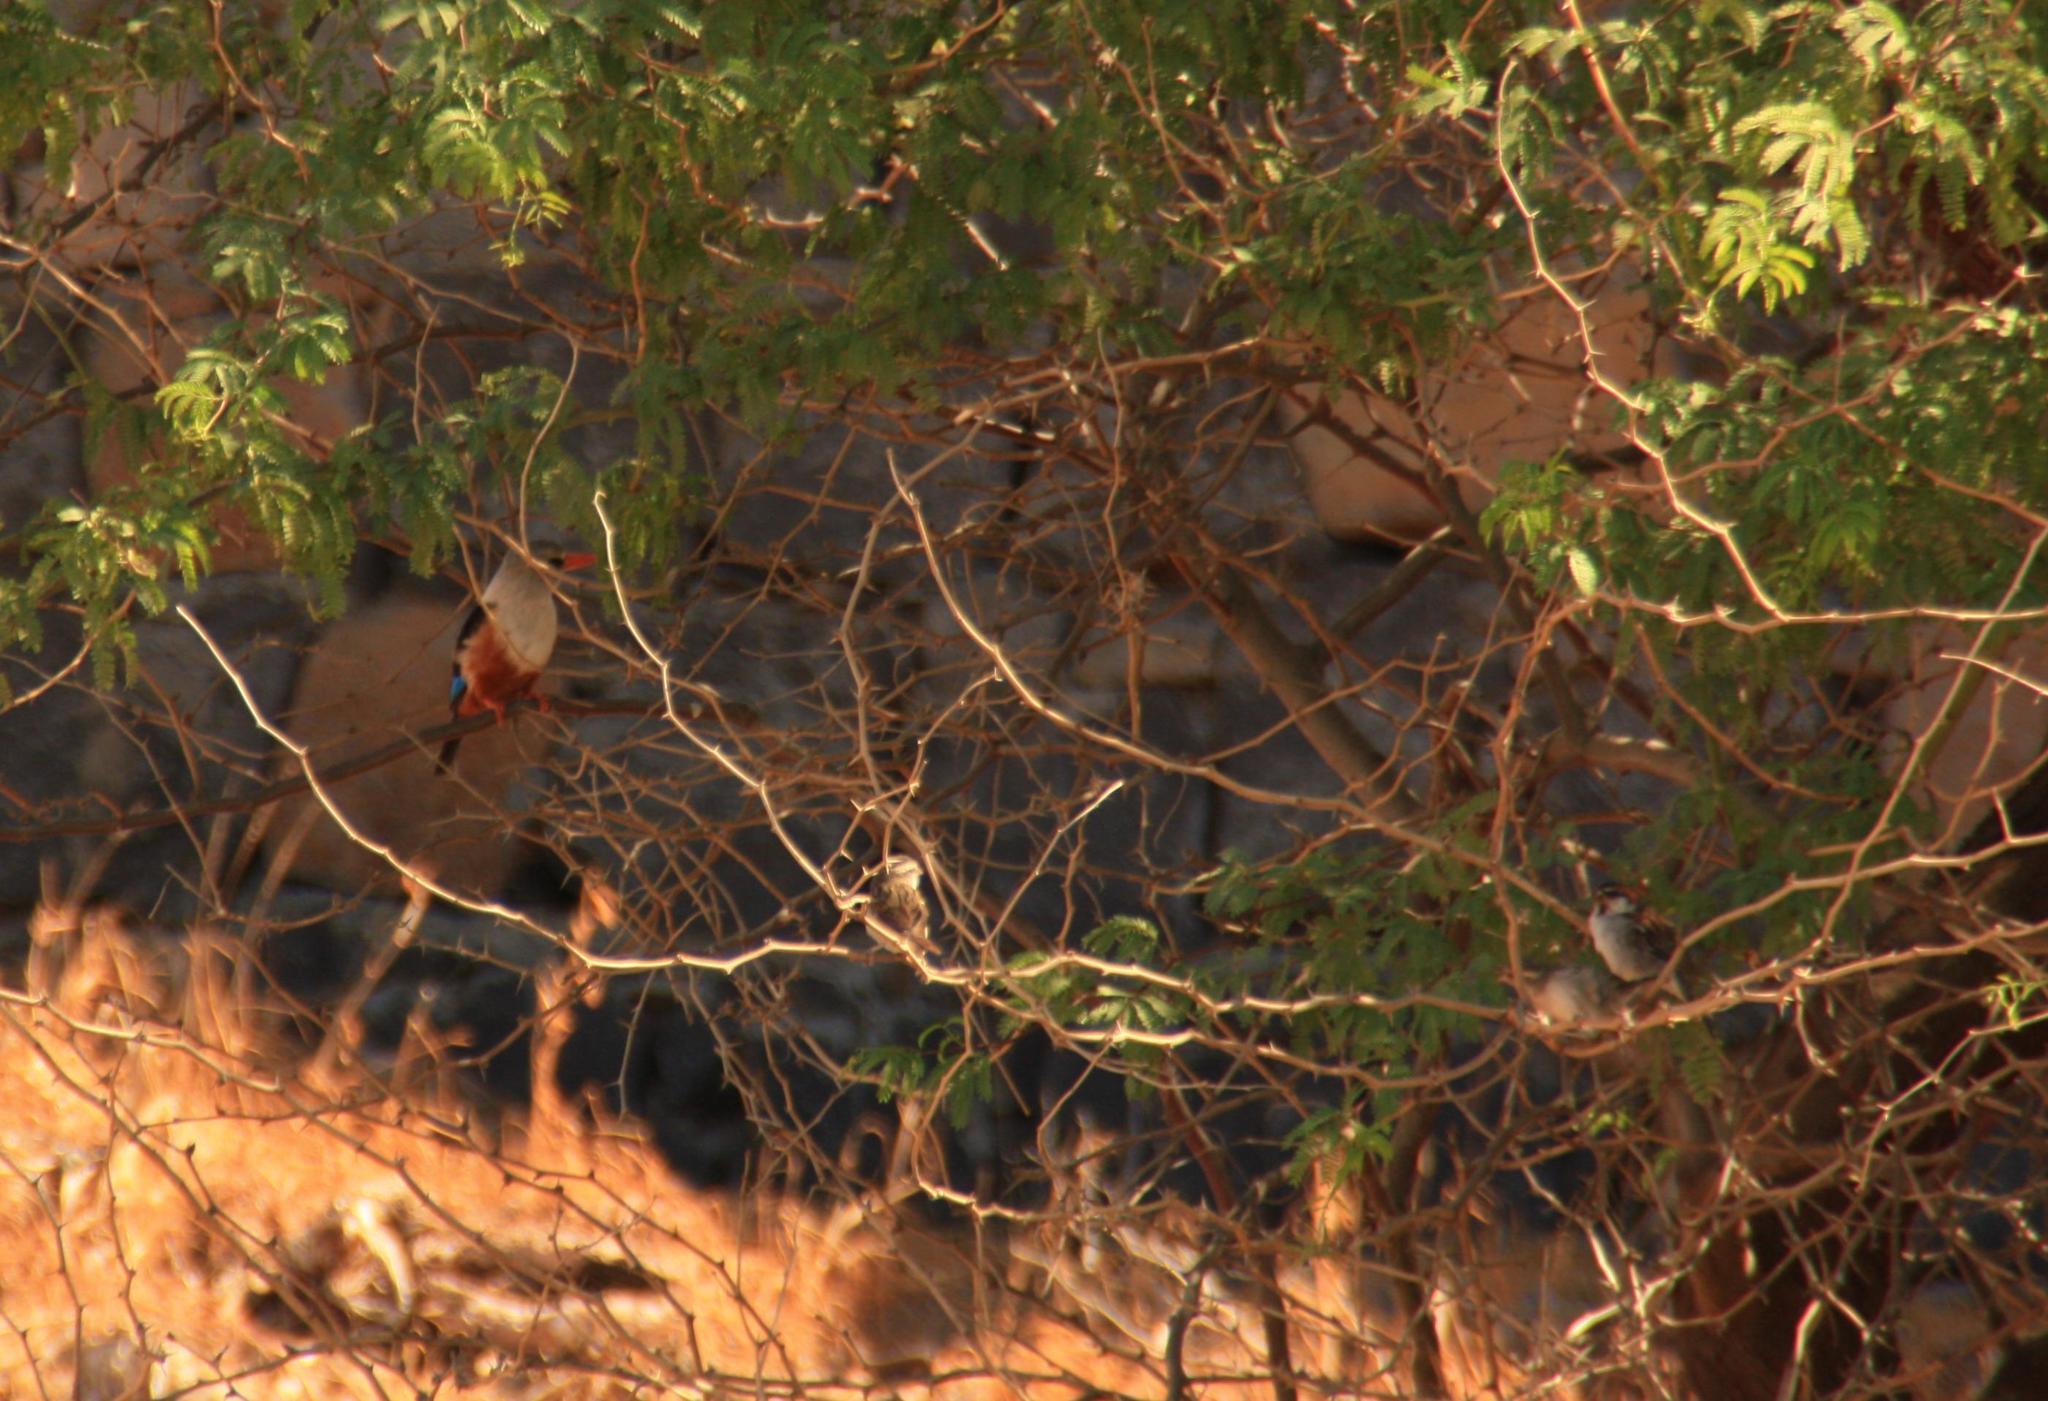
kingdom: Animalia
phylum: Chordata
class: Aves
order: Coraciiformes
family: Alcedinidae
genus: Halcyon
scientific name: Halcyon leucocephala
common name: Grey-headed kingfisher
